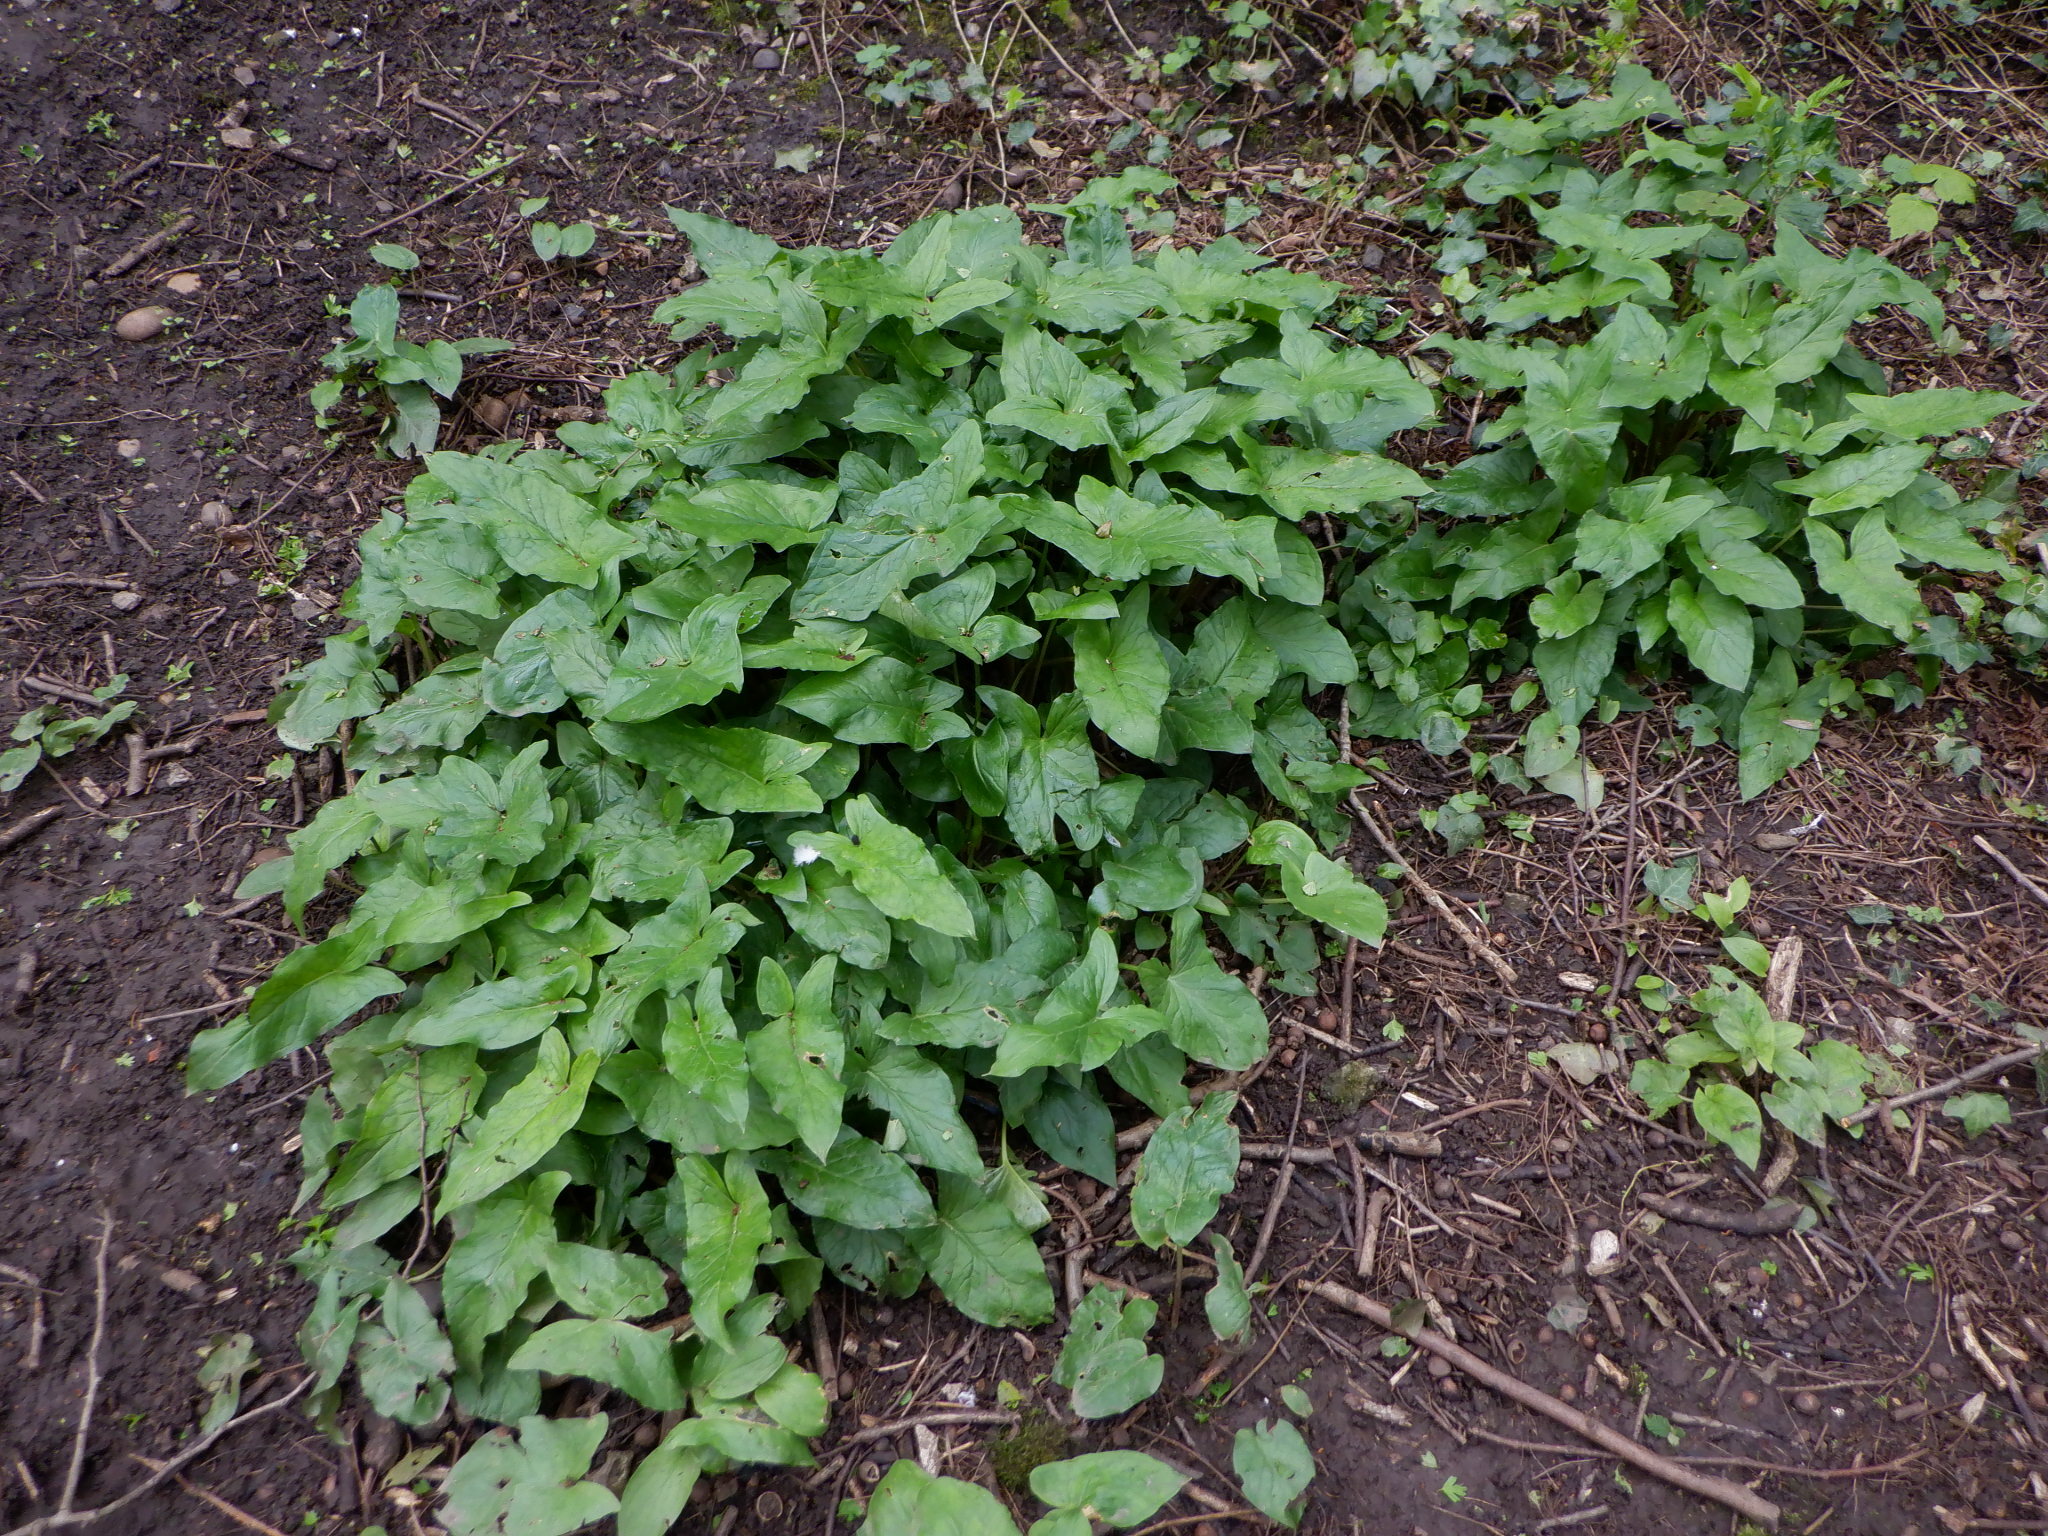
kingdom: Plantae
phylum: Tracheophyta
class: Liliopsida
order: Alismatales
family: Araceae
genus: Arum
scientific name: Arum maculatum
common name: Lords-and-ladies
